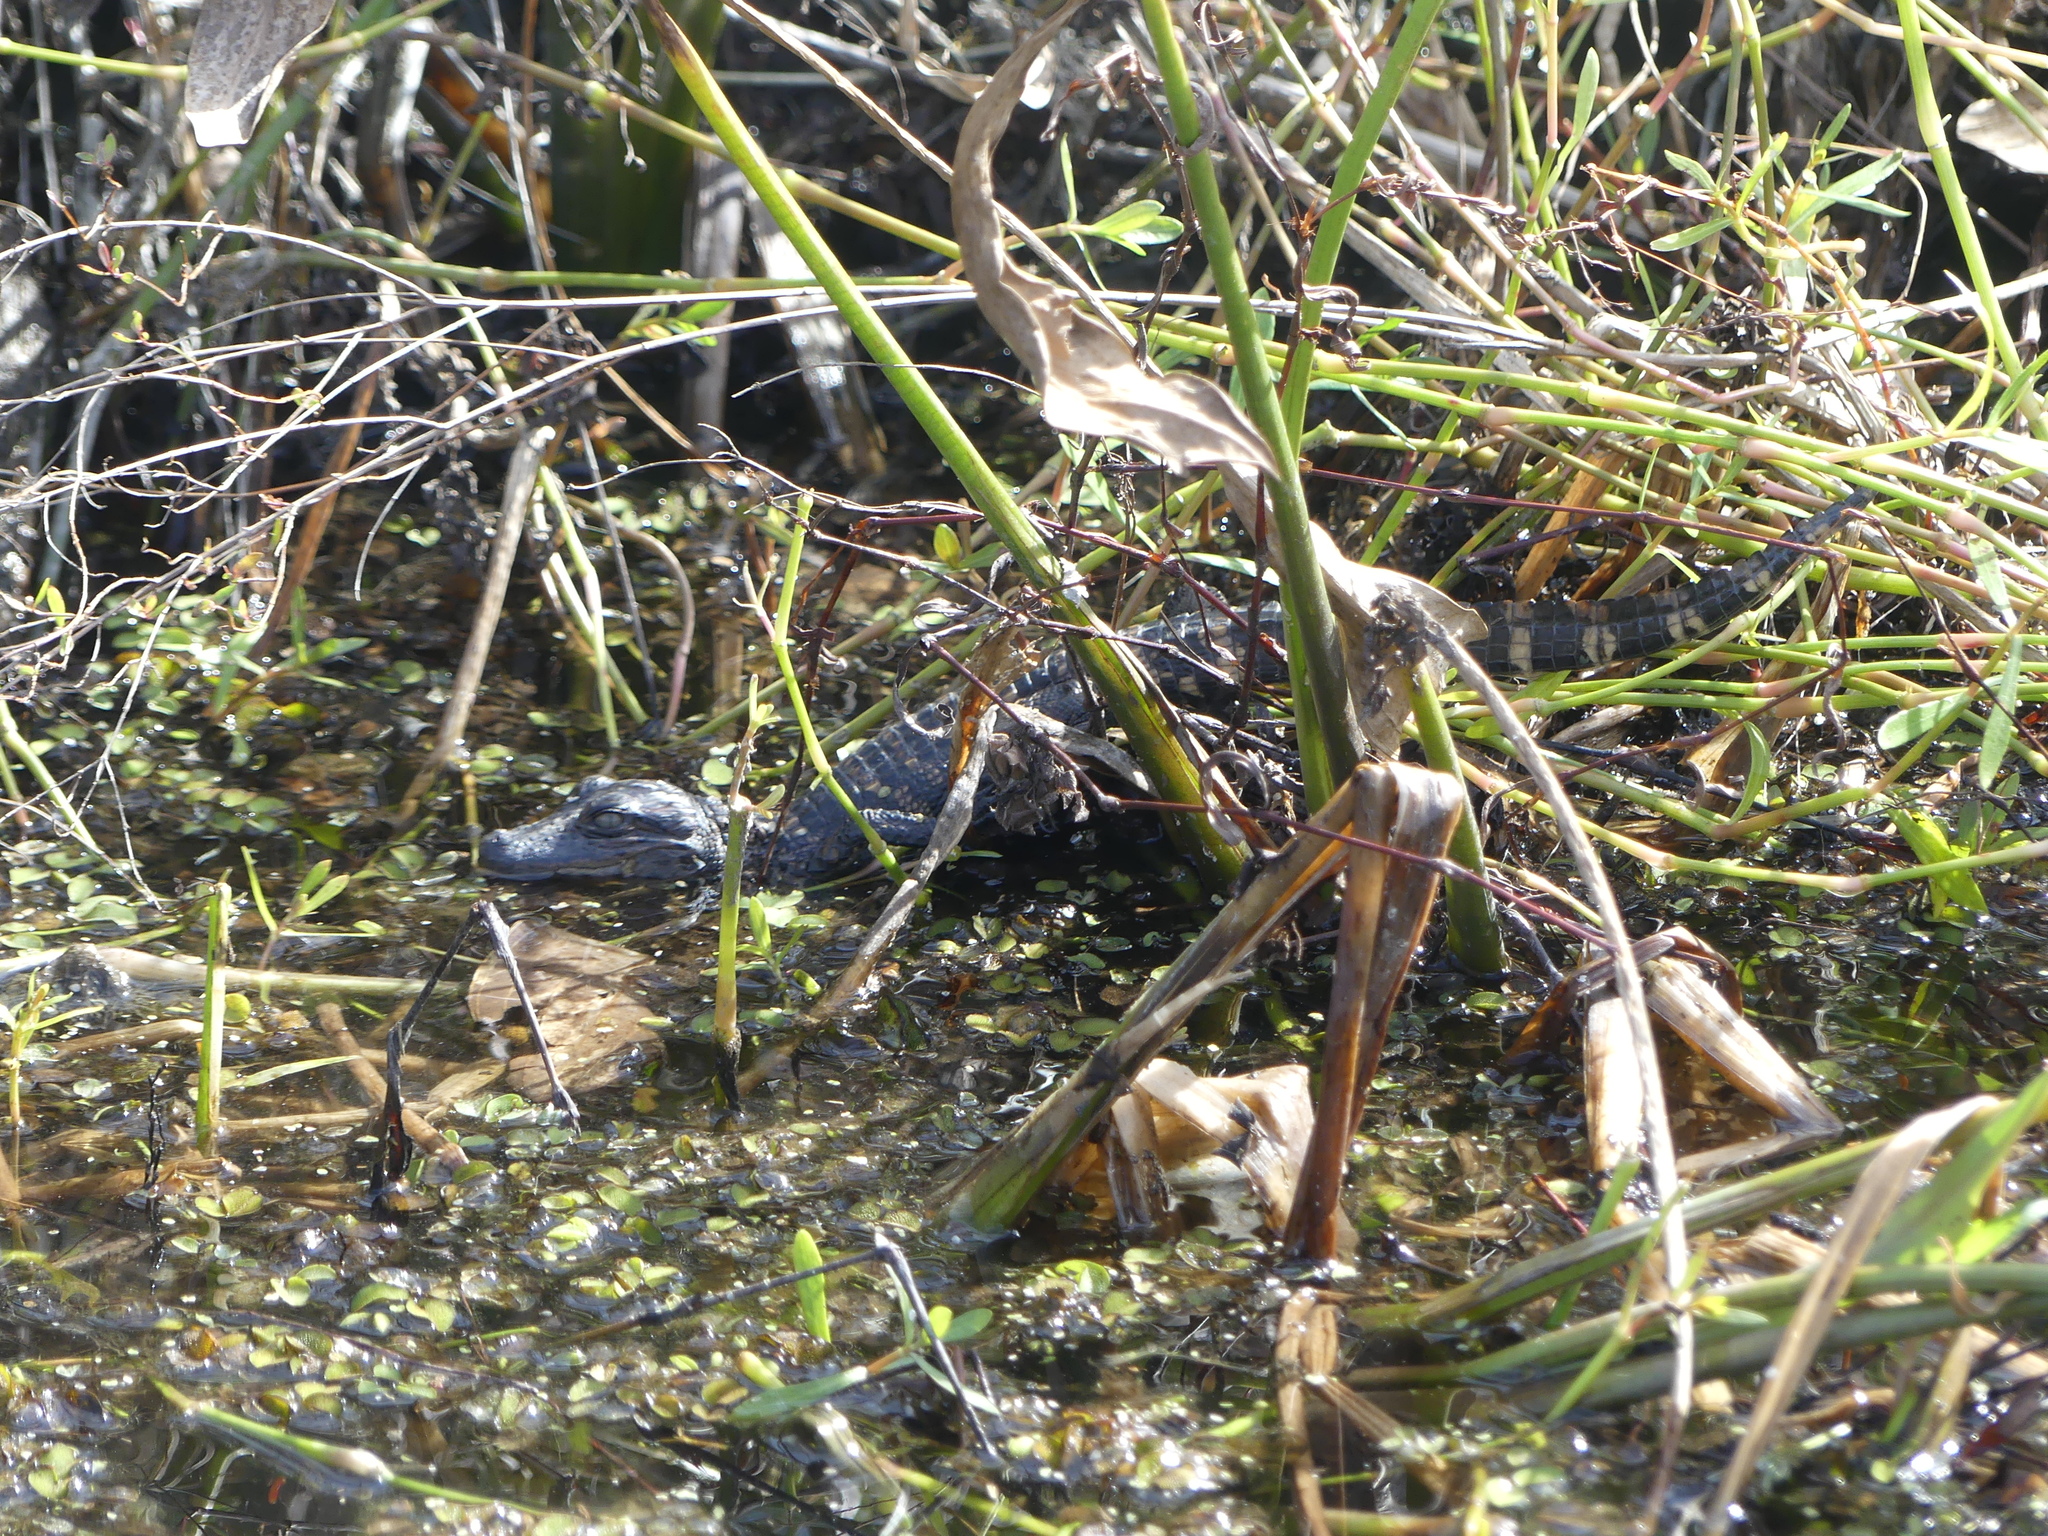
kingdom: Animalia
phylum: Chordata
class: Crocodylia
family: Alligatoridae
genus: Alligator
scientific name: Alligator mississippiensis
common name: American alligator
